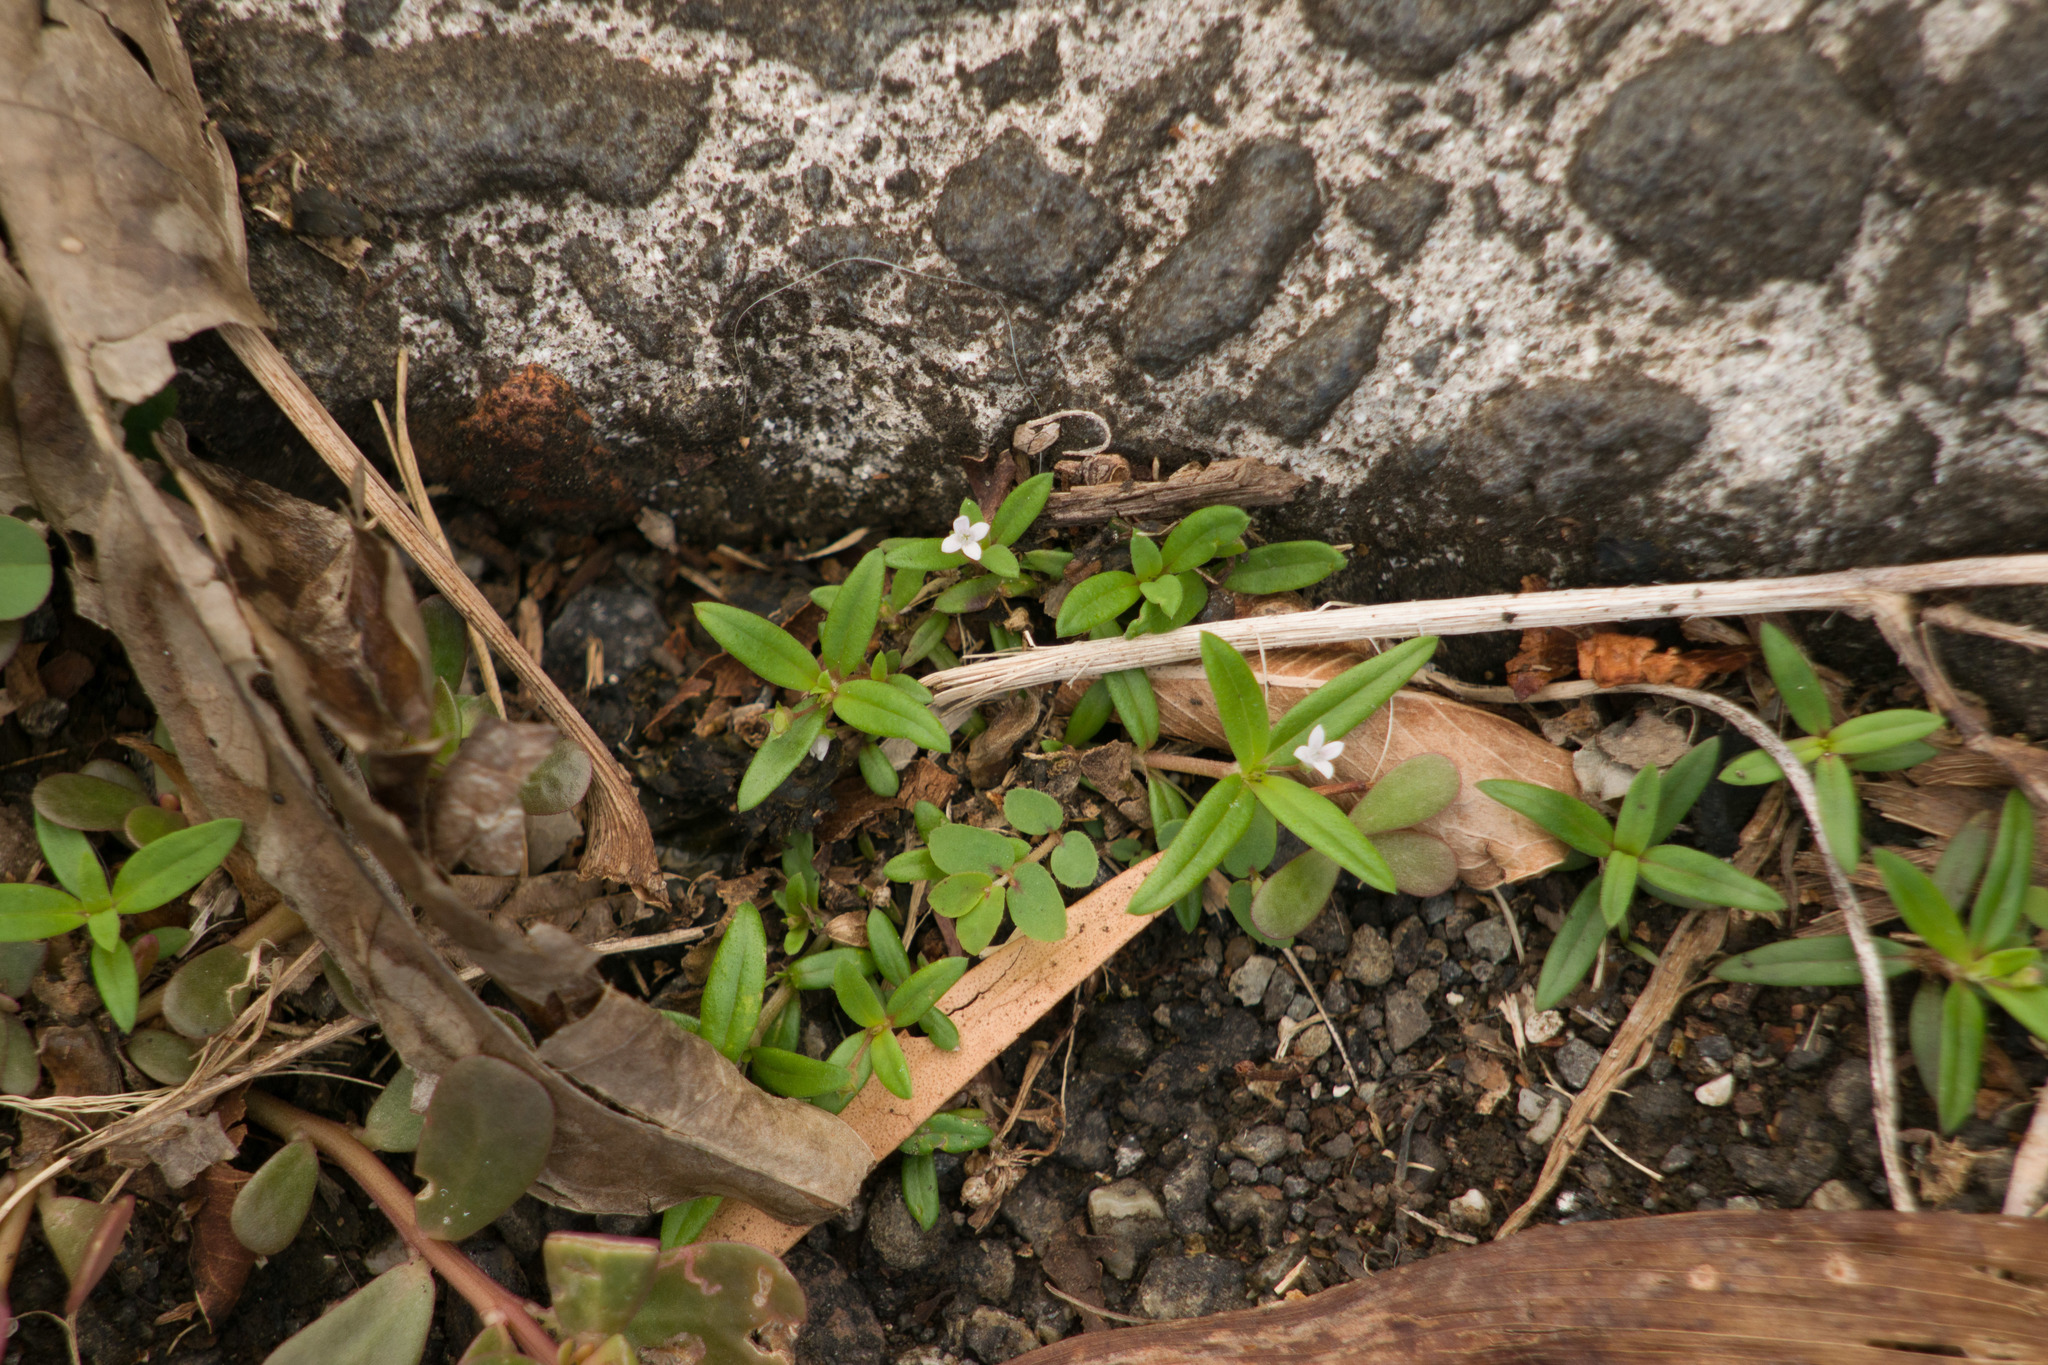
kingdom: Plantae
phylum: Tracheophyta
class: Magnoliopsida
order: Gentianales
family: Rubiaceae
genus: Oldenlandia
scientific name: Oldenlandia corymbosa
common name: Flat-top mille graines
